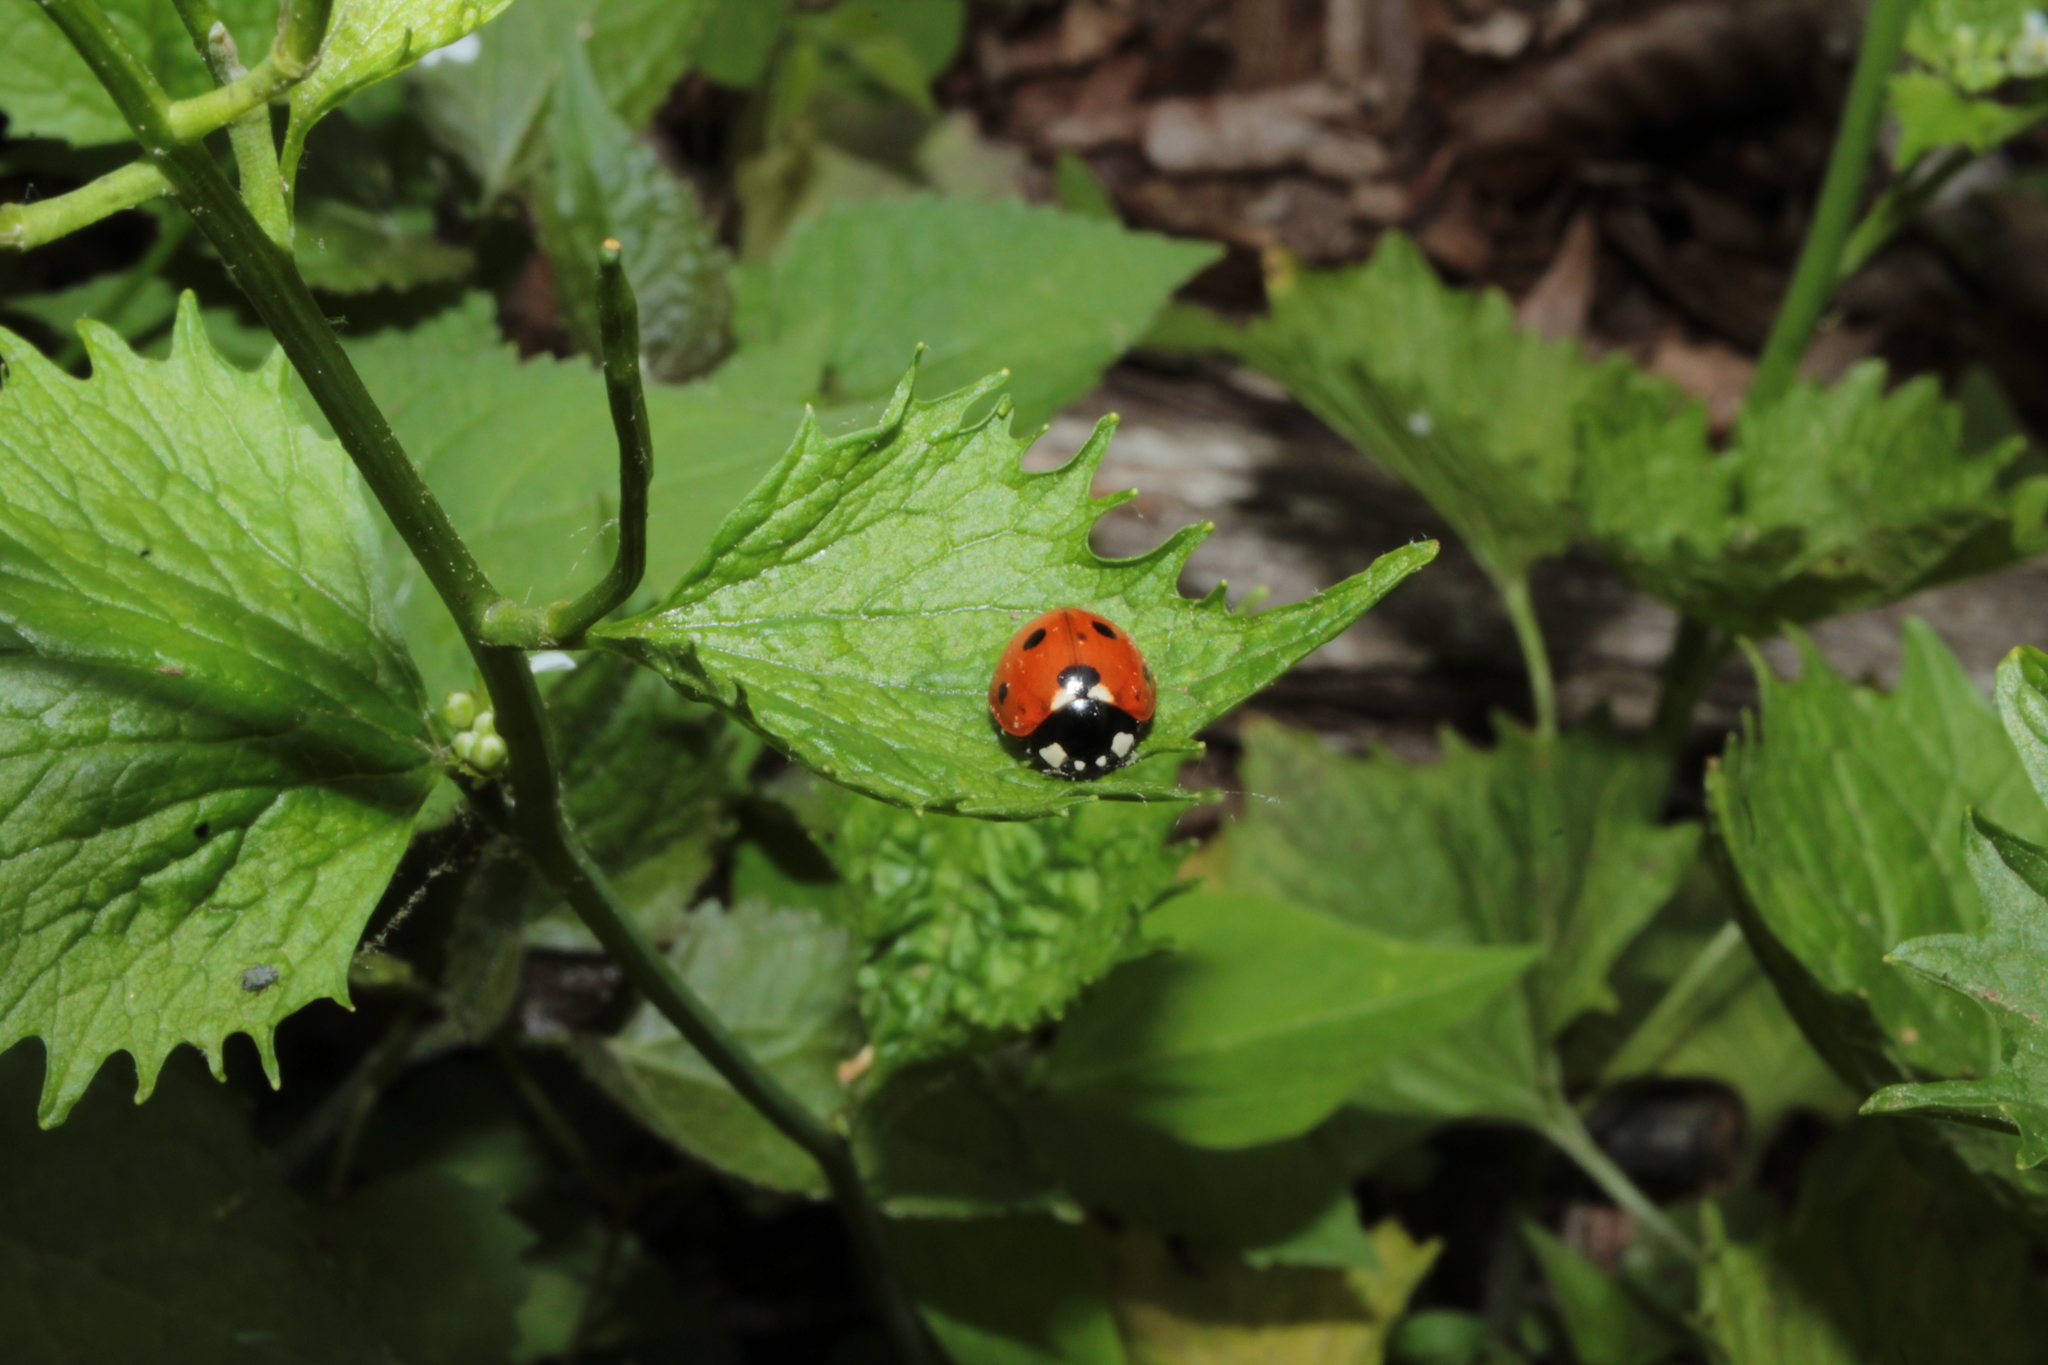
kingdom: Animalia
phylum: Arthropoda
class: Insecta
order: Coleoptera
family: Coccinellidae
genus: Coccinella
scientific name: Coccinella septempunctata
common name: Sevenspotted lady beetle
